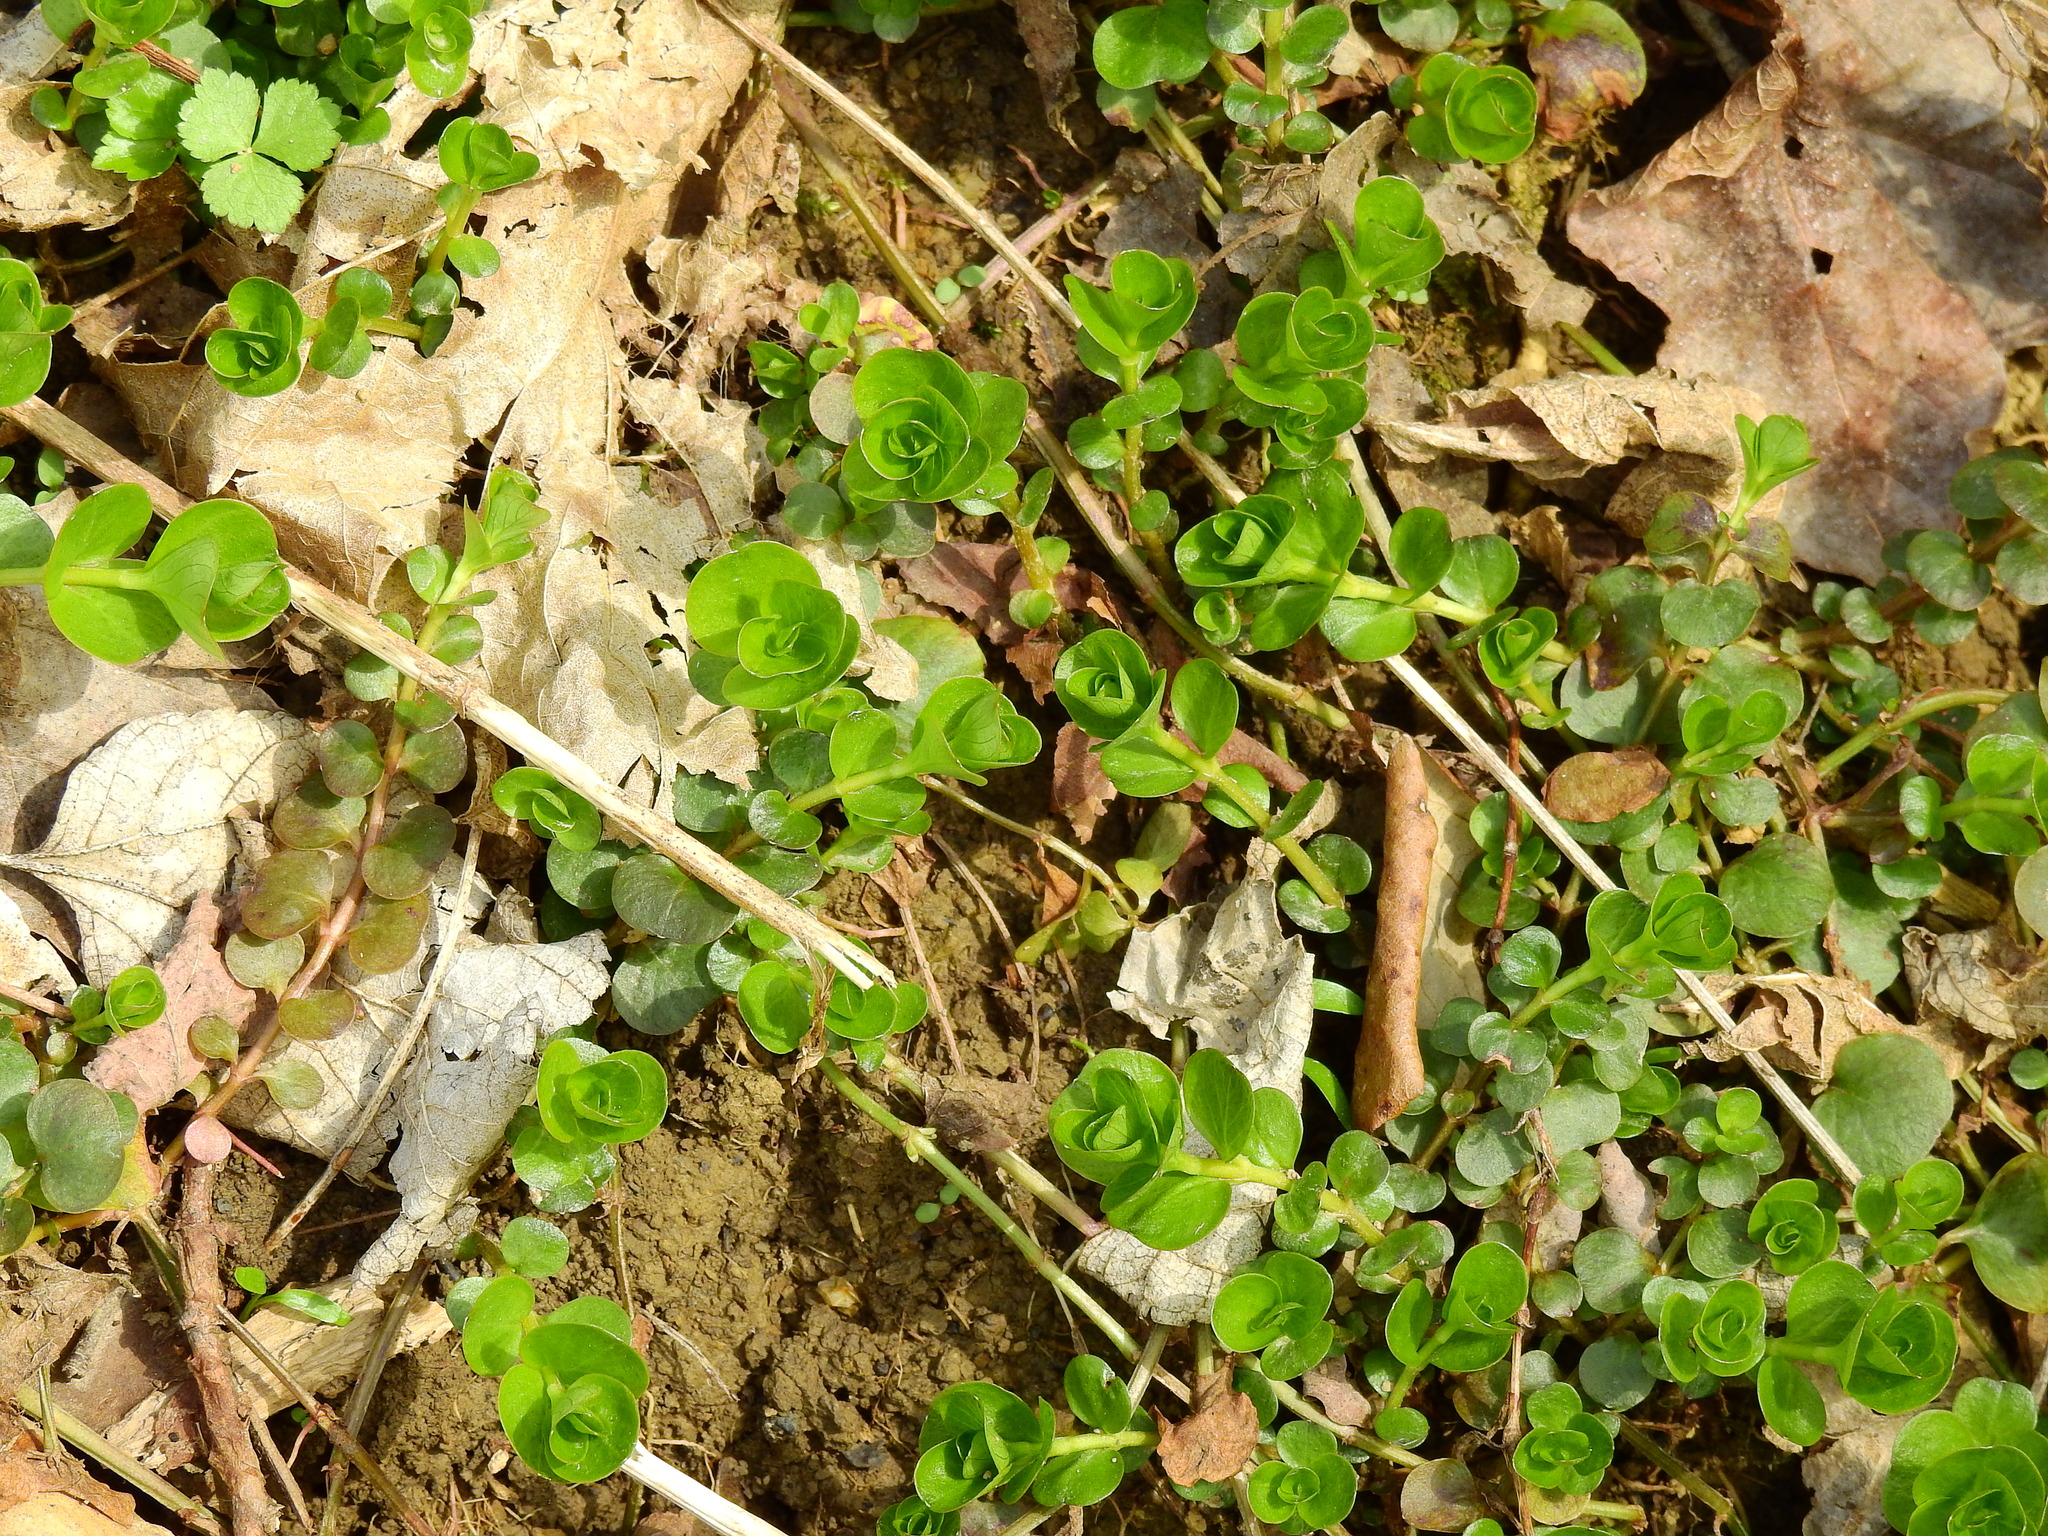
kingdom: Plantae
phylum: Tracheophyta
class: Magnoliopsida
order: Ericales
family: Primulaceae
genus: Lysimachia
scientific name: Lysimachia nummularia
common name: Moneywort
